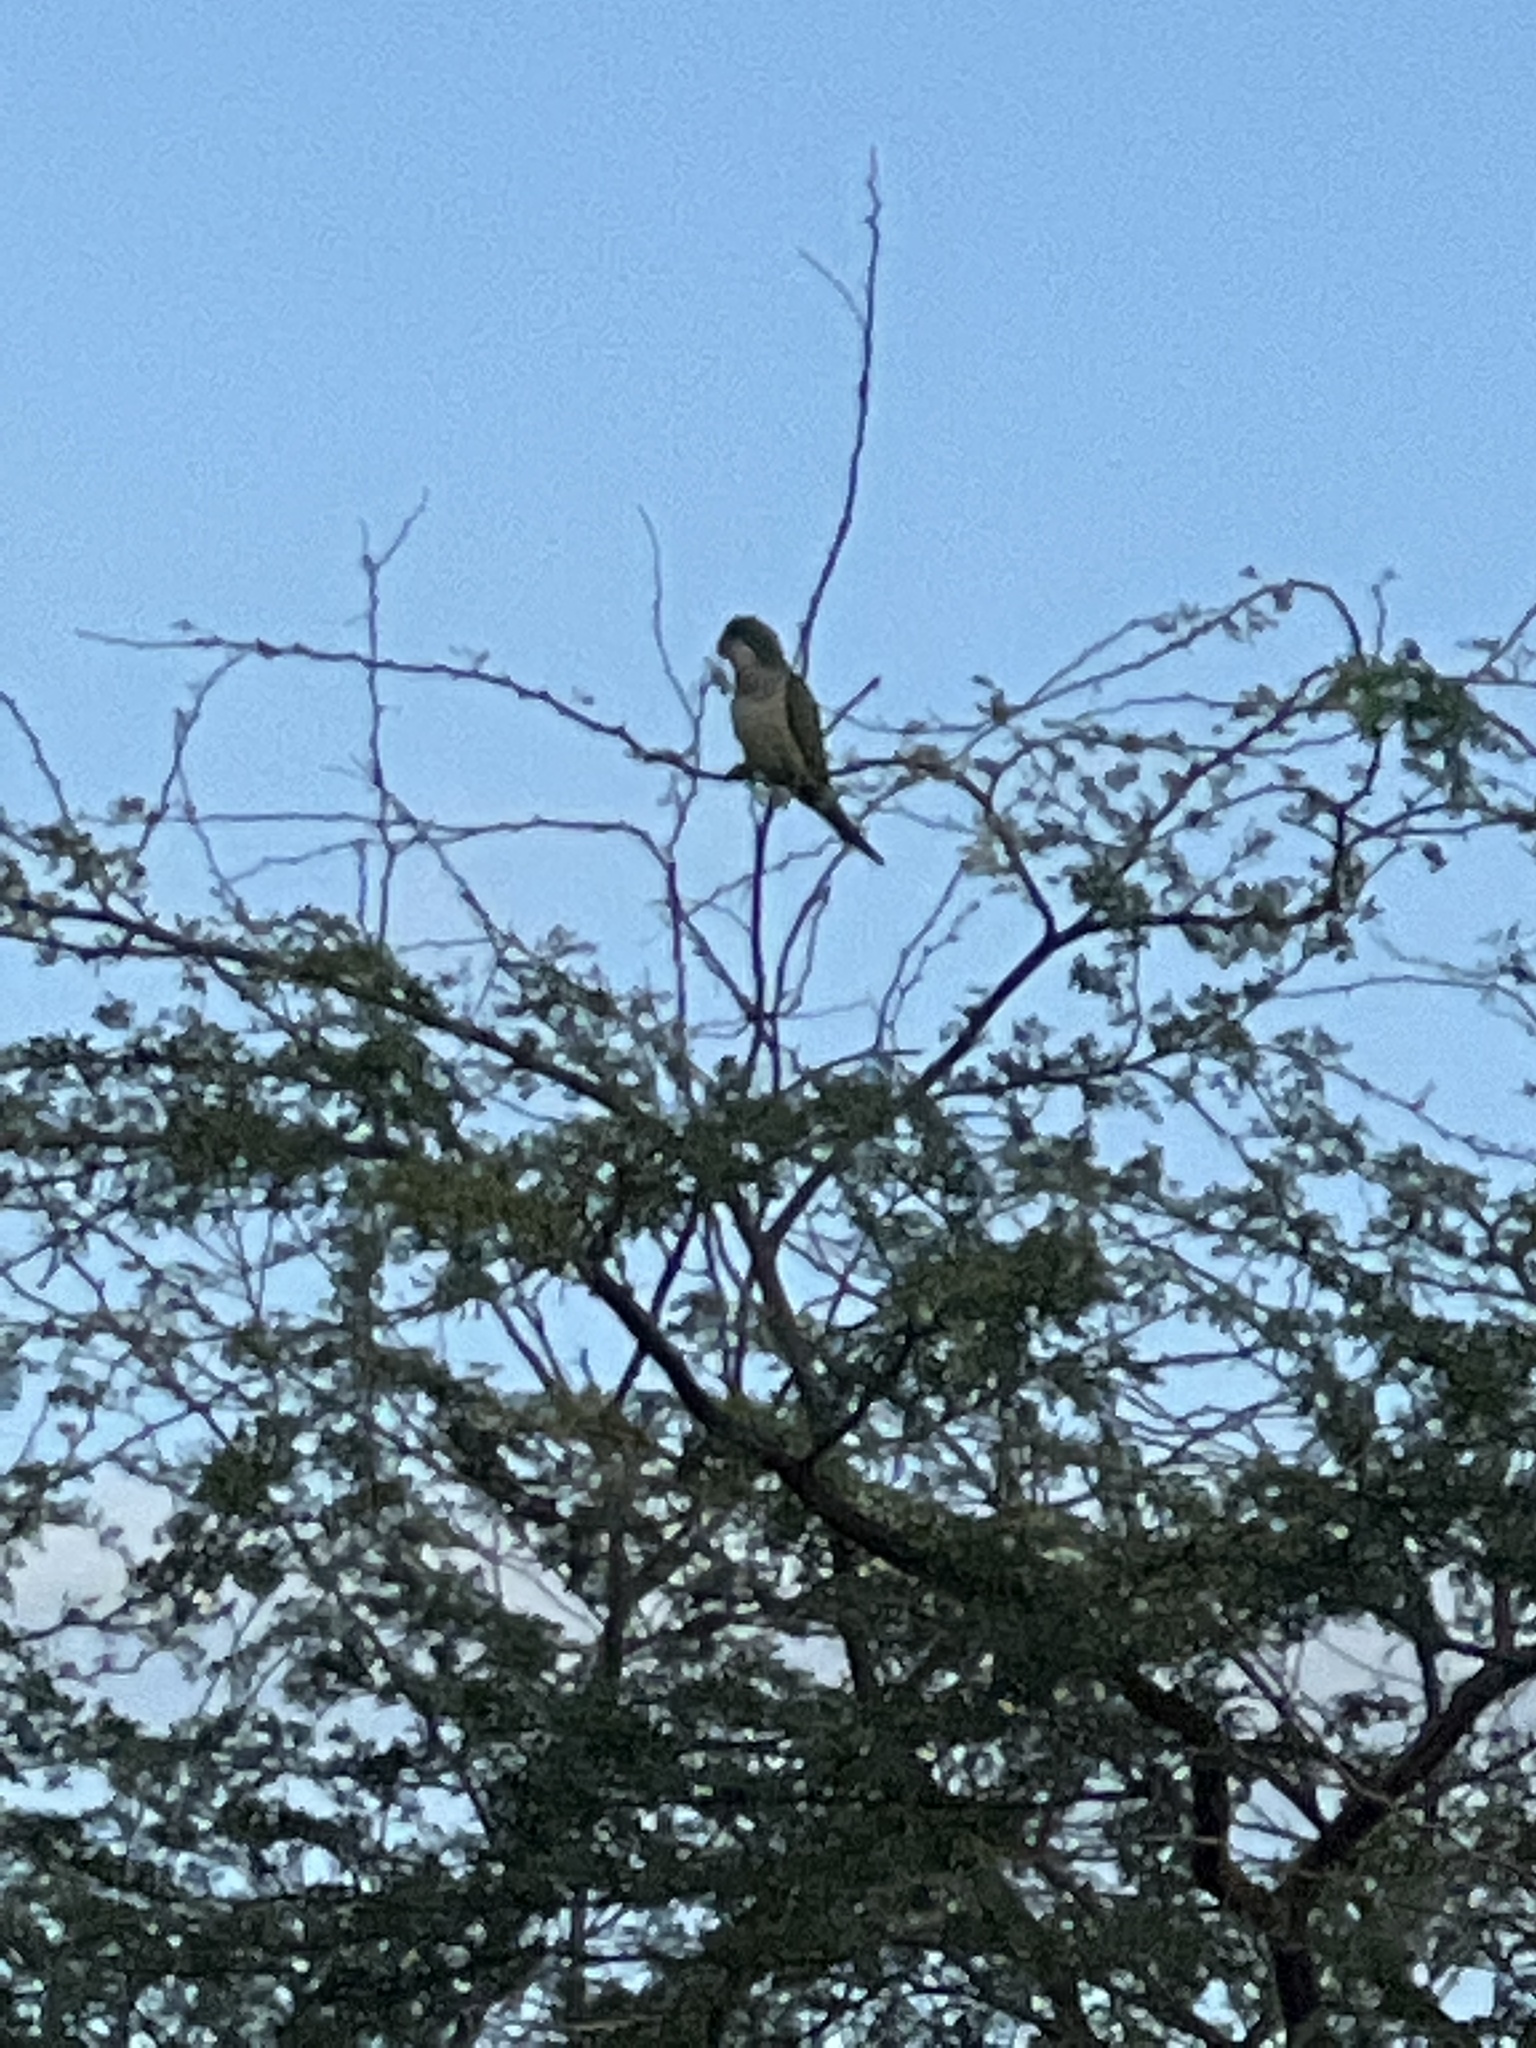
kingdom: Animalia
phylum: Chordata
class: Aves
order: Psittaciformes
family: Psittacidae
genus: Myiopsitta
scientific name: Myiopsitta monachus
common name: Monk parakeet
